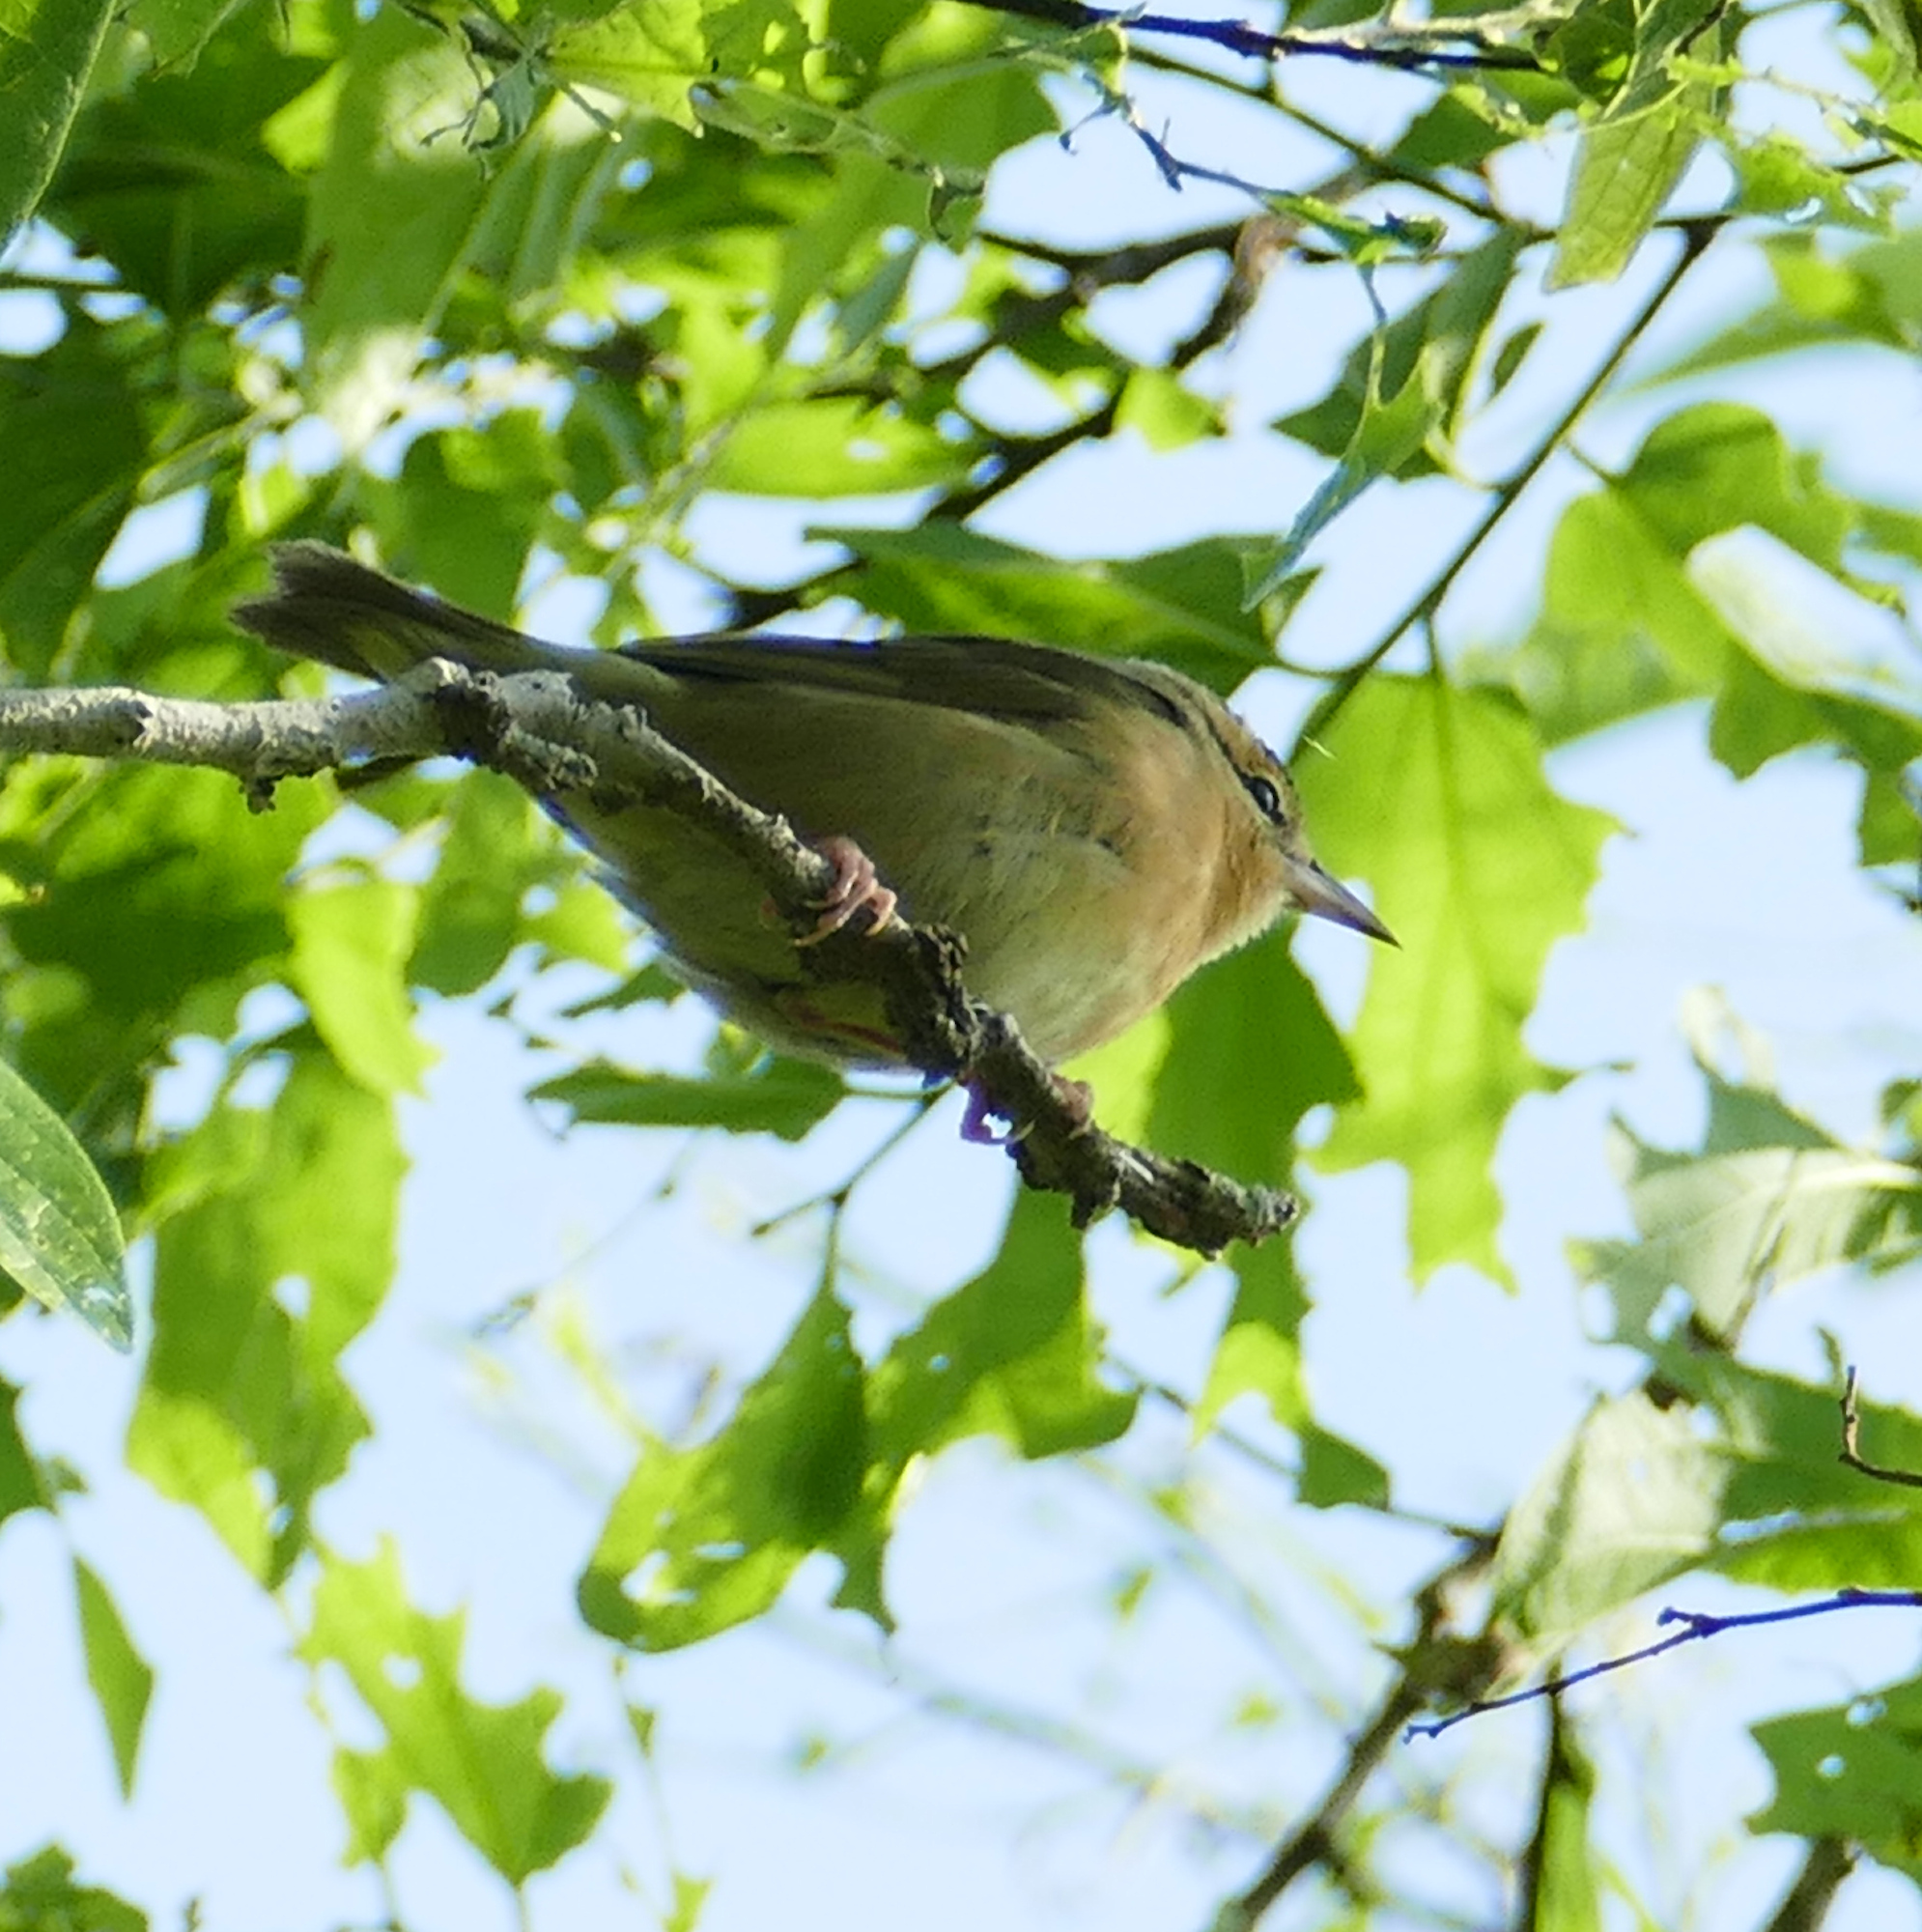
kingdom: Animalia
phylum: Chordata
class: Aves
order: Passeriformes
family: Parulidae
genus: Helmitheros
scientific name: Helmitheros vermivorum
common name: Worm-eating warbler
